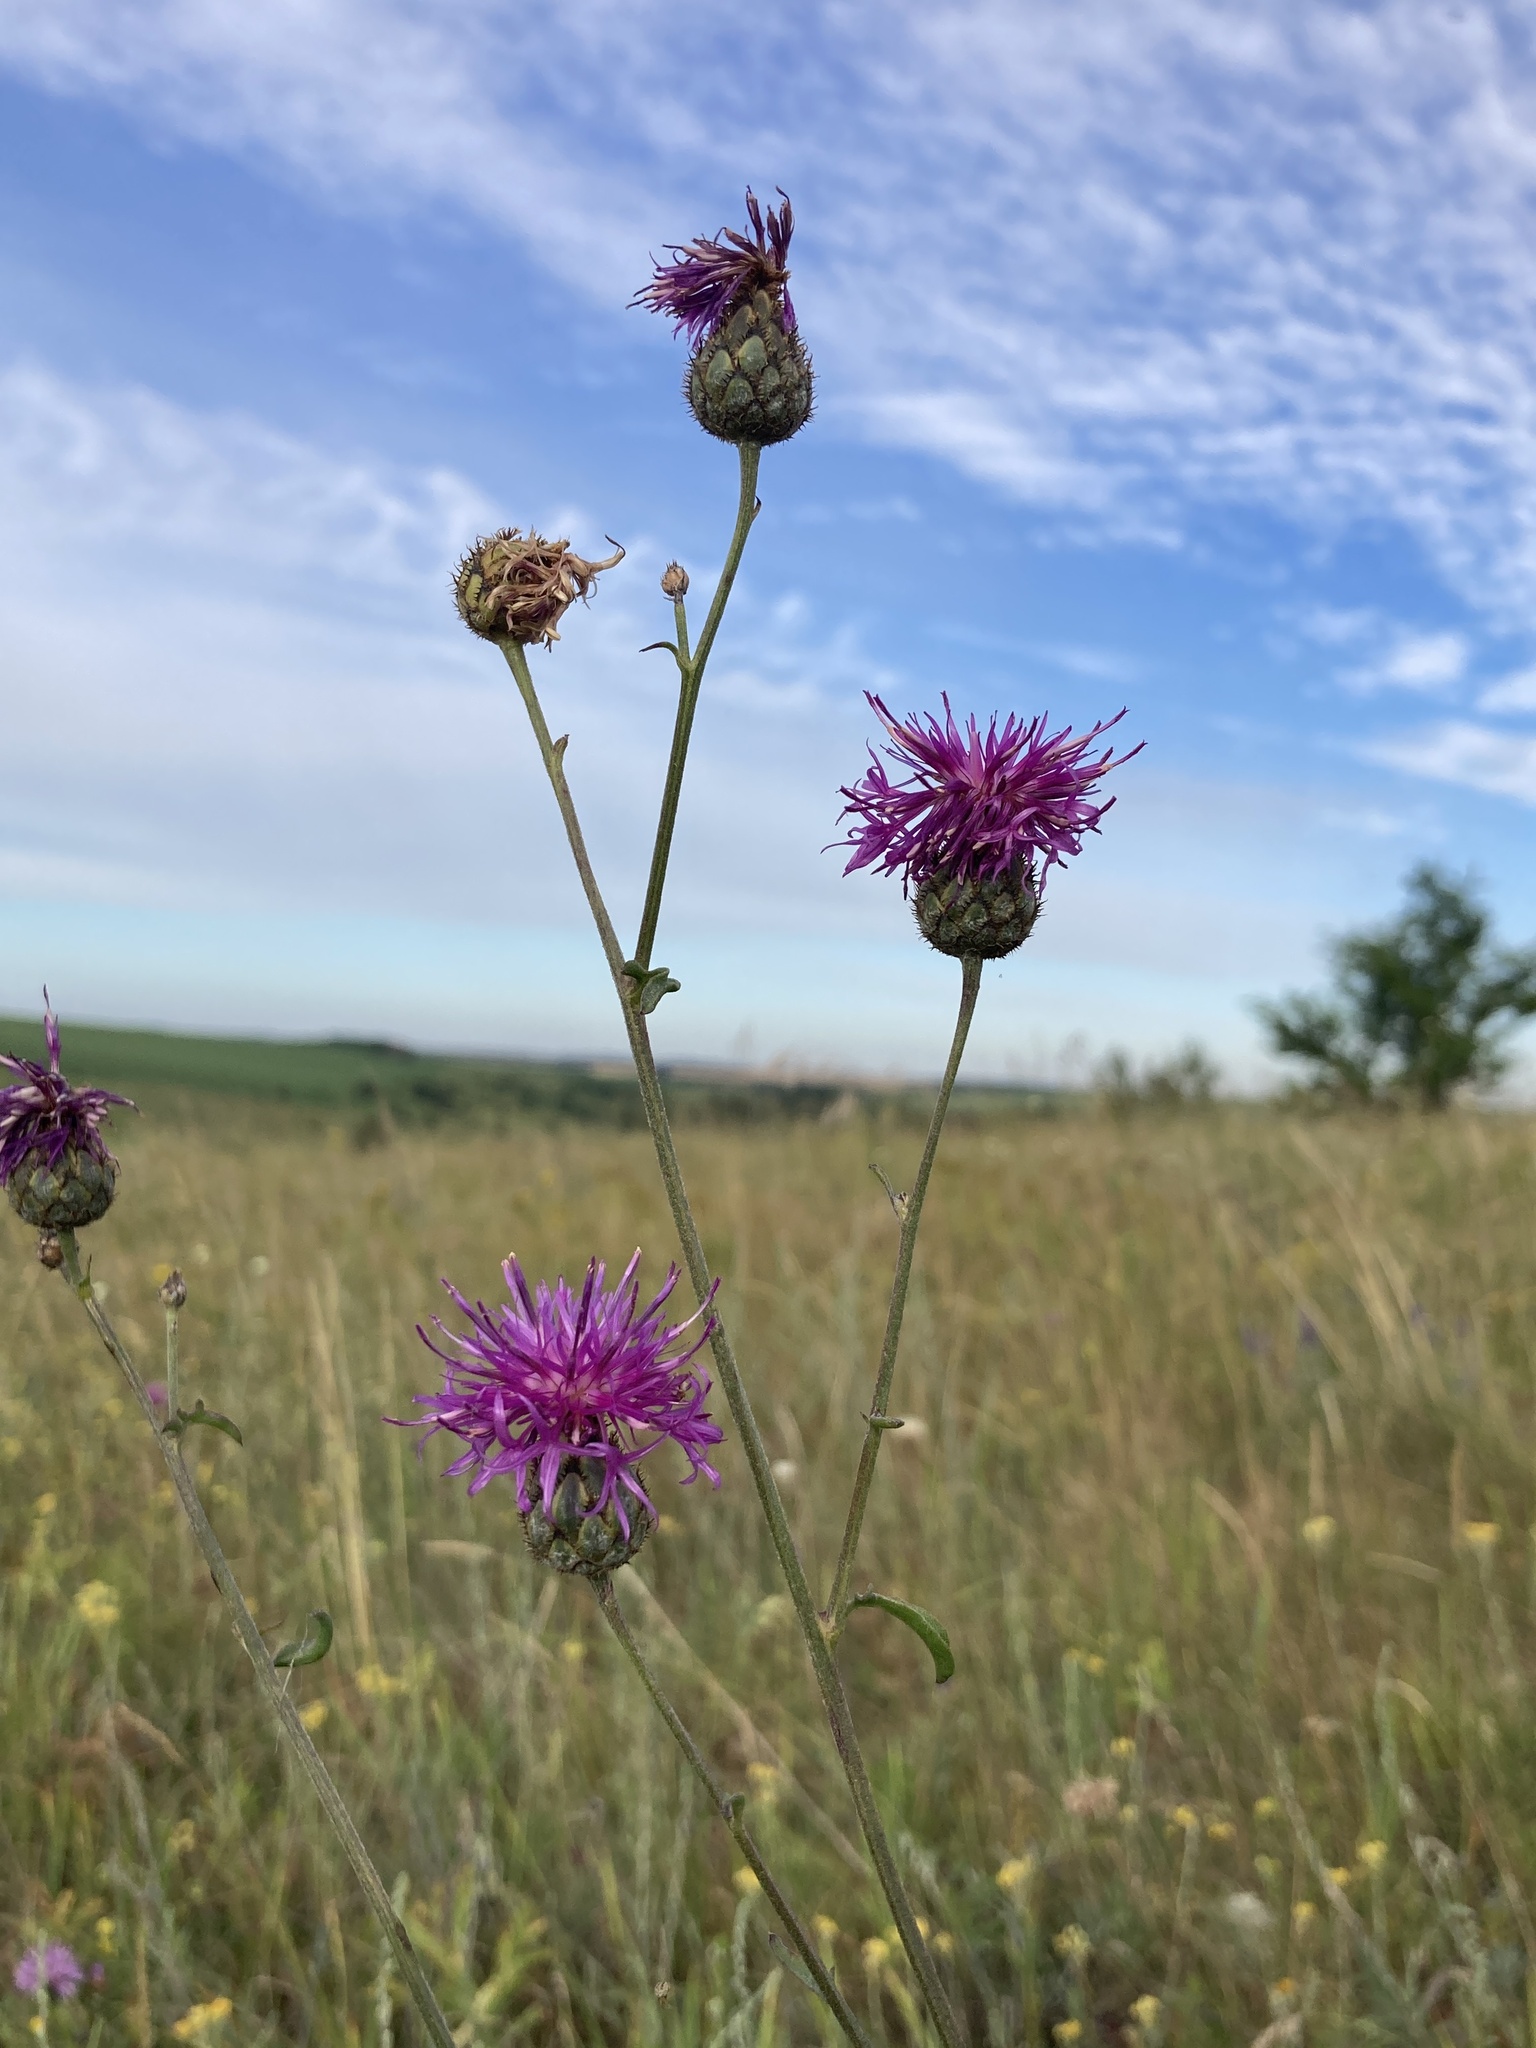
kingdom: Plantae
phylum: Tracheophyta
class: Magnoliopsida
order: Asterales
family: Asteraceae
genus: Centaurea
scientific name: Centaurea scabiosa
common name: Greater knapweed
